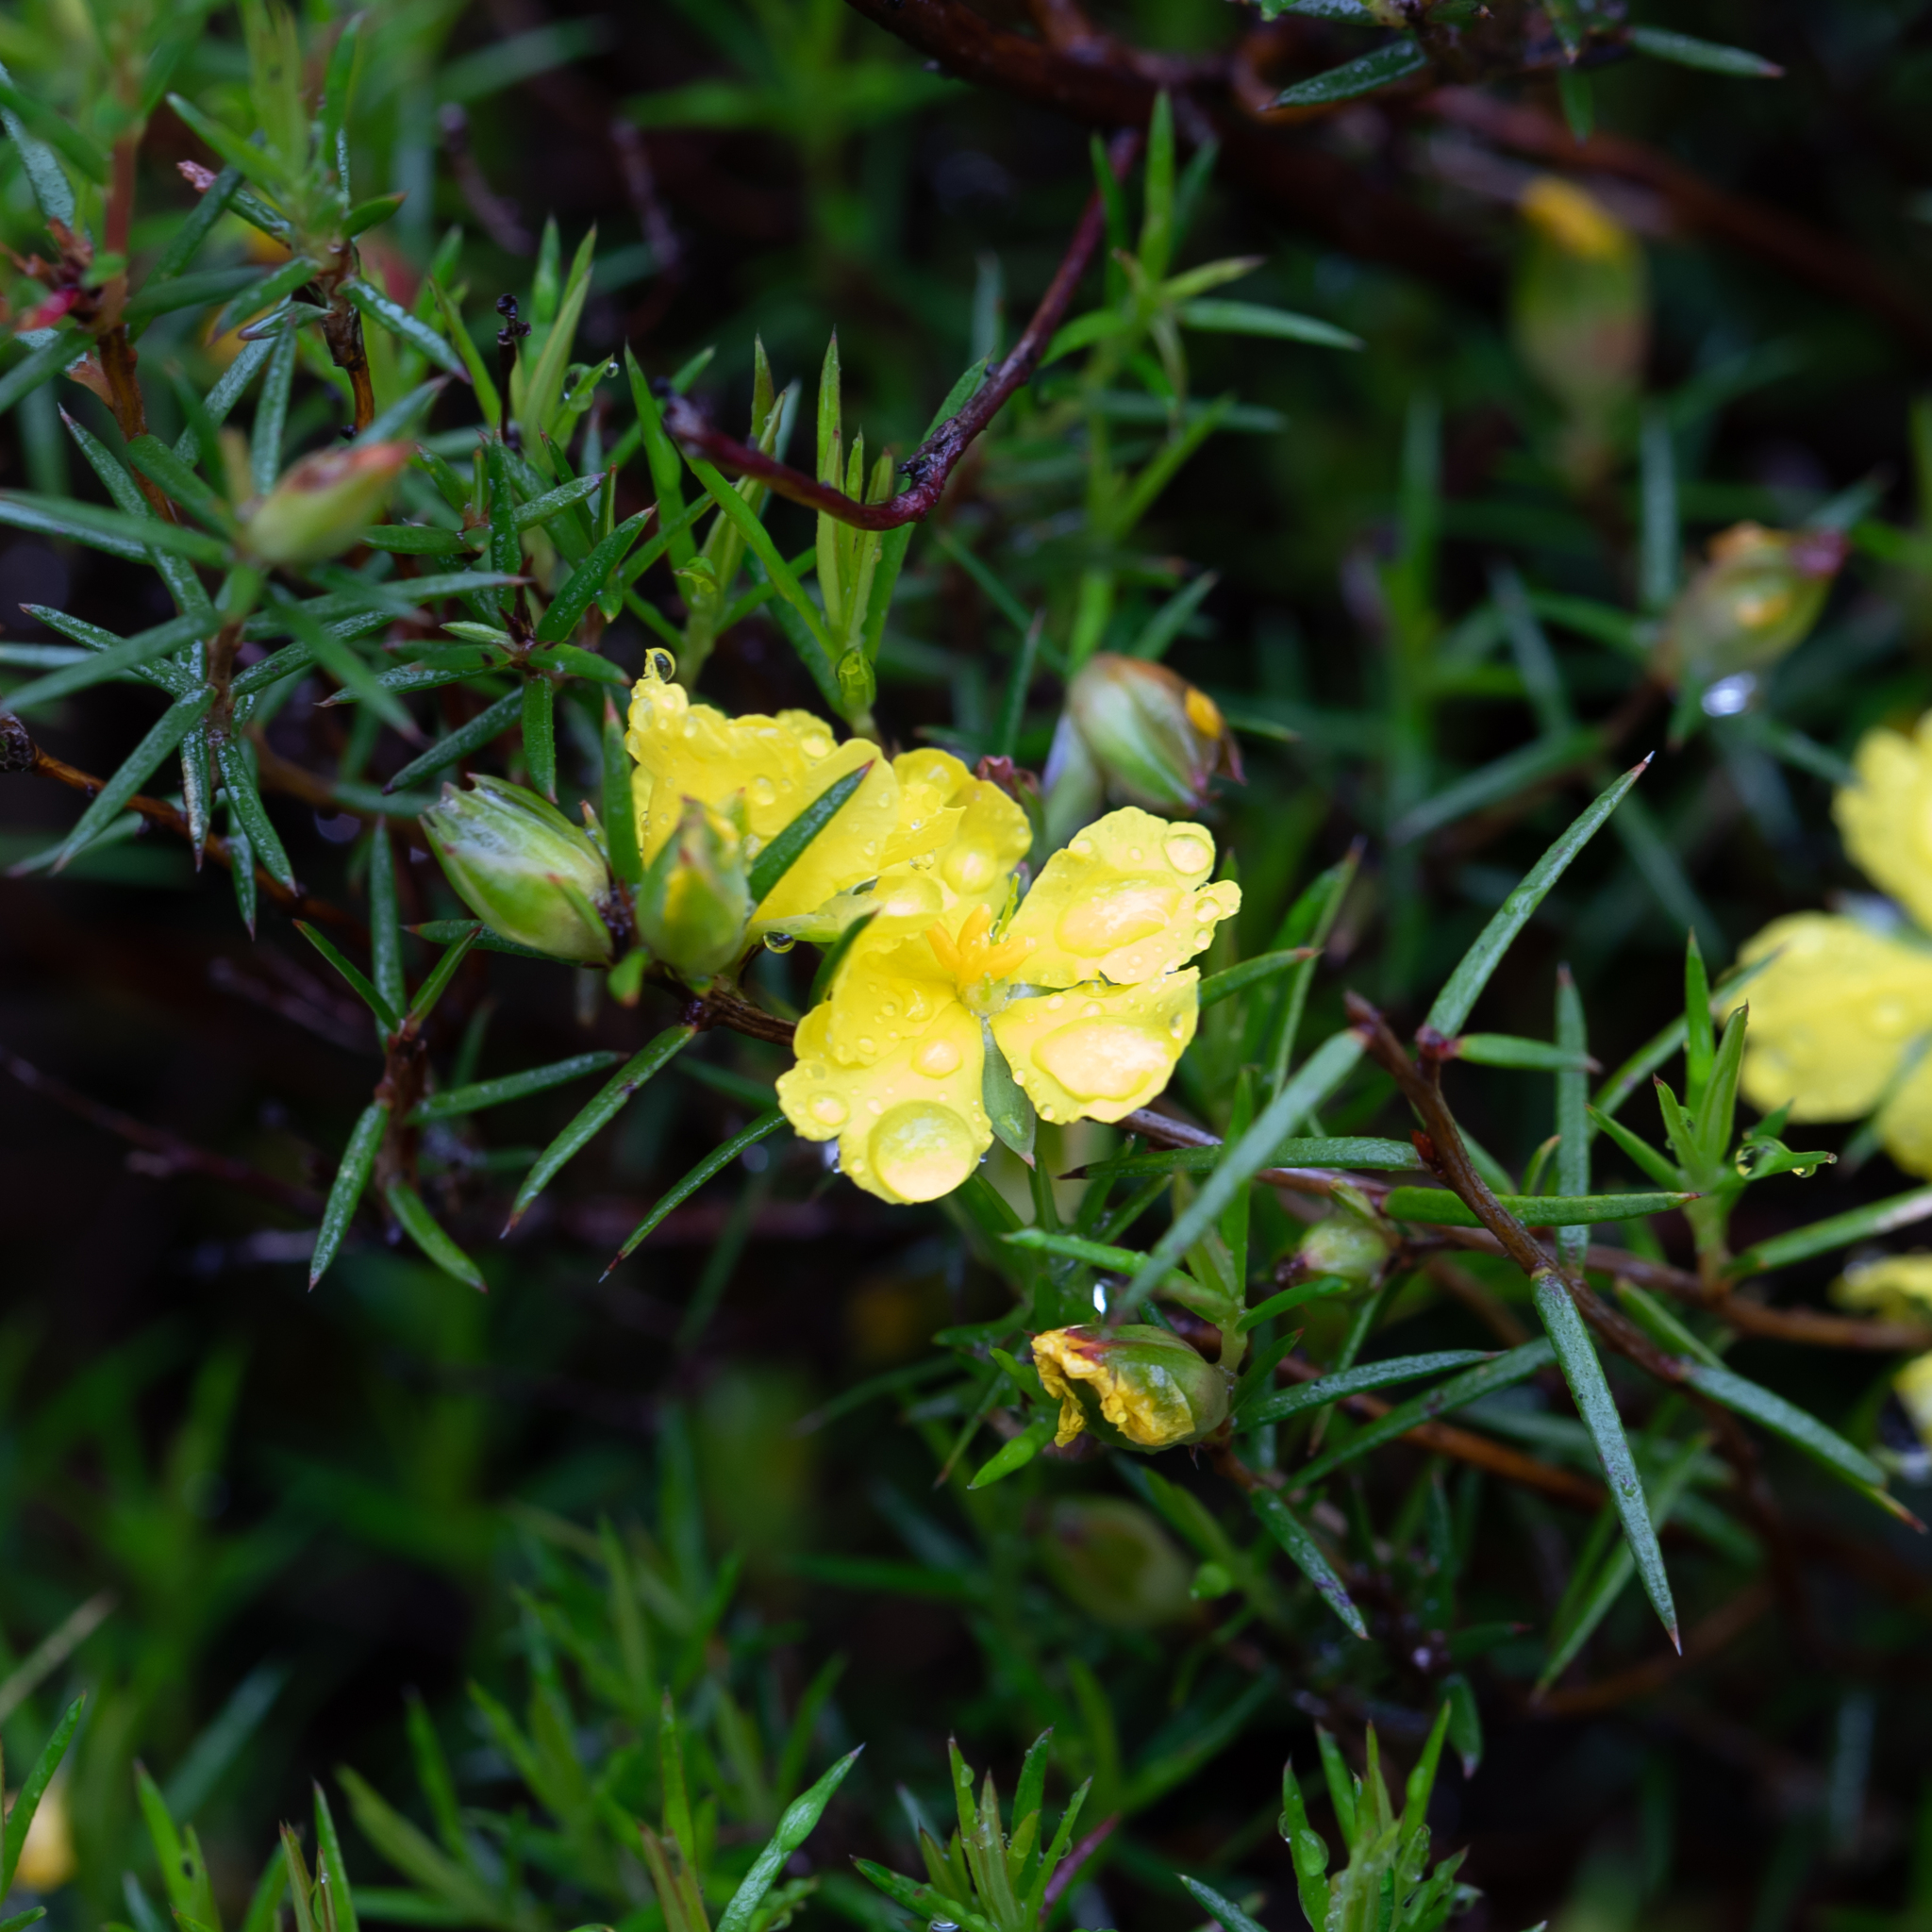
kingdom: Plantae
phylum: Tracheophyta
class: Magnoliopsida
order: Dilleniales
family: Dilleniaceae
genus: Hibbertia
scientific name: Hibbertia exutiacies
